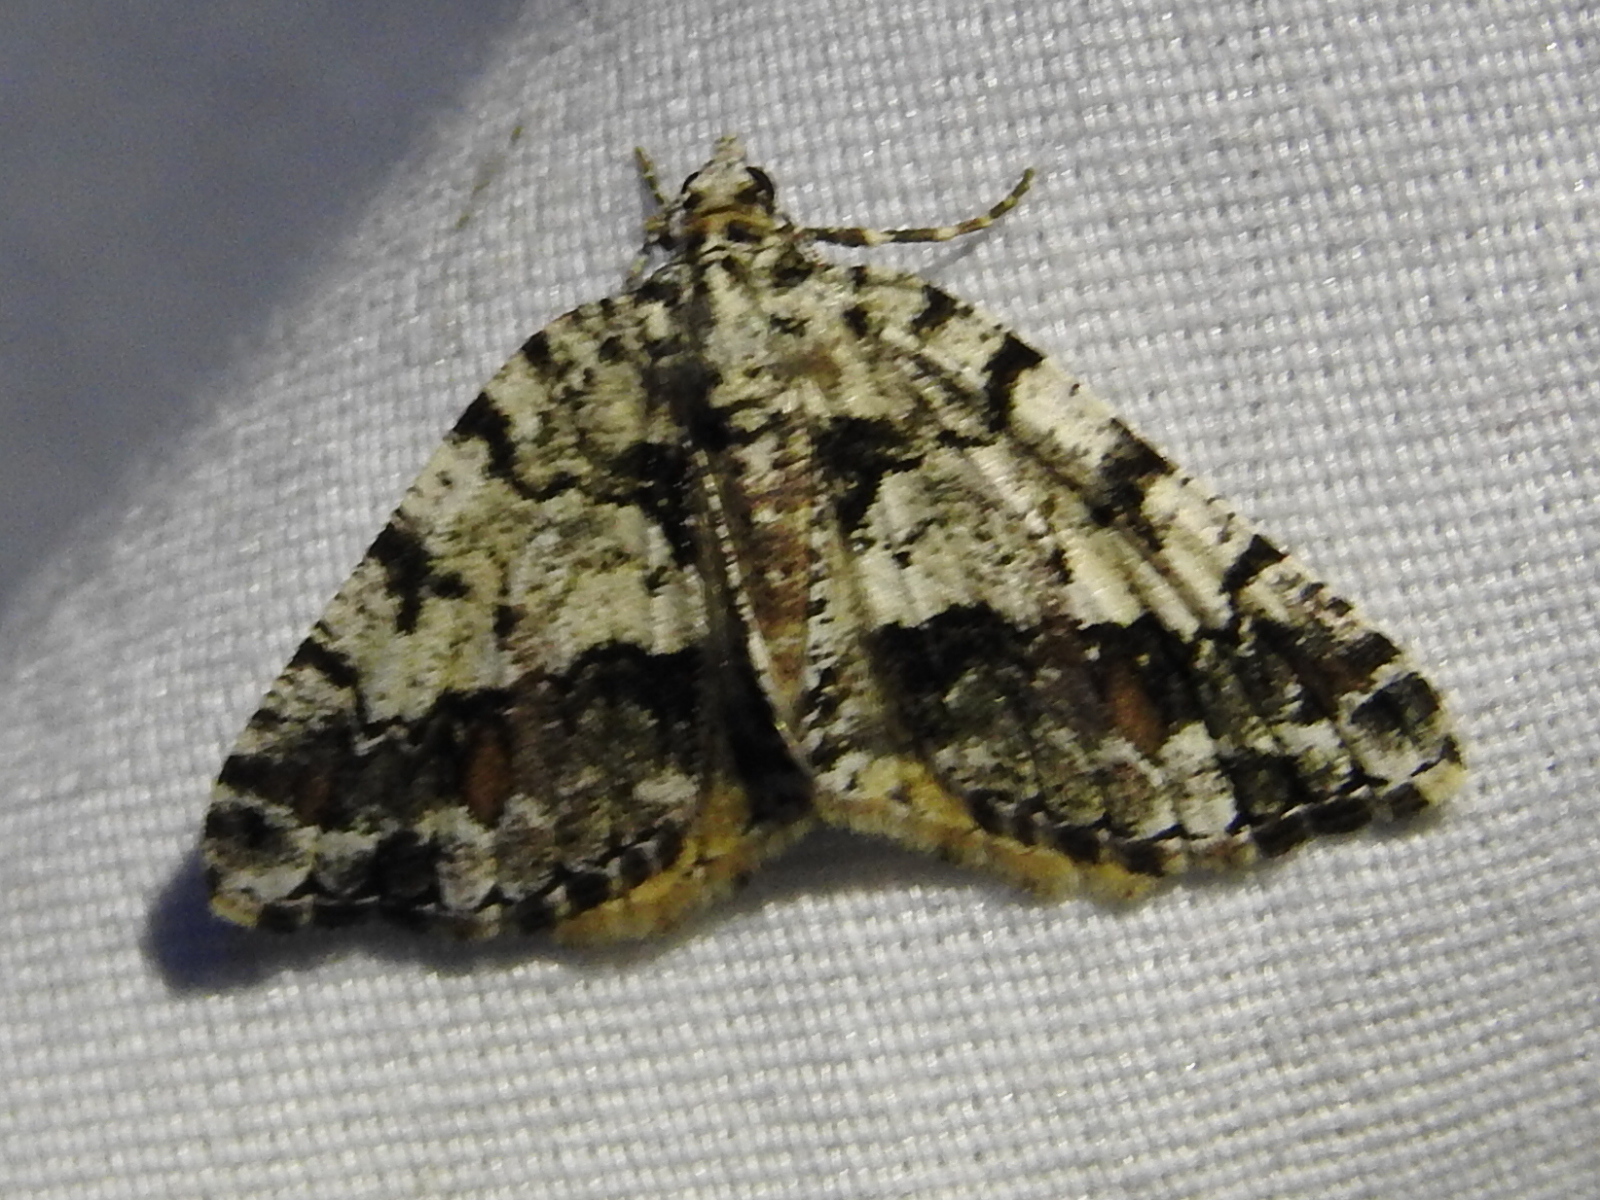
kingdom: Animalia
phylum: Arthropoda
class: Insecta
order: Lepidoptera
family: Geometridae
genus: Macaria
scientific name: Macaria graphidaria
